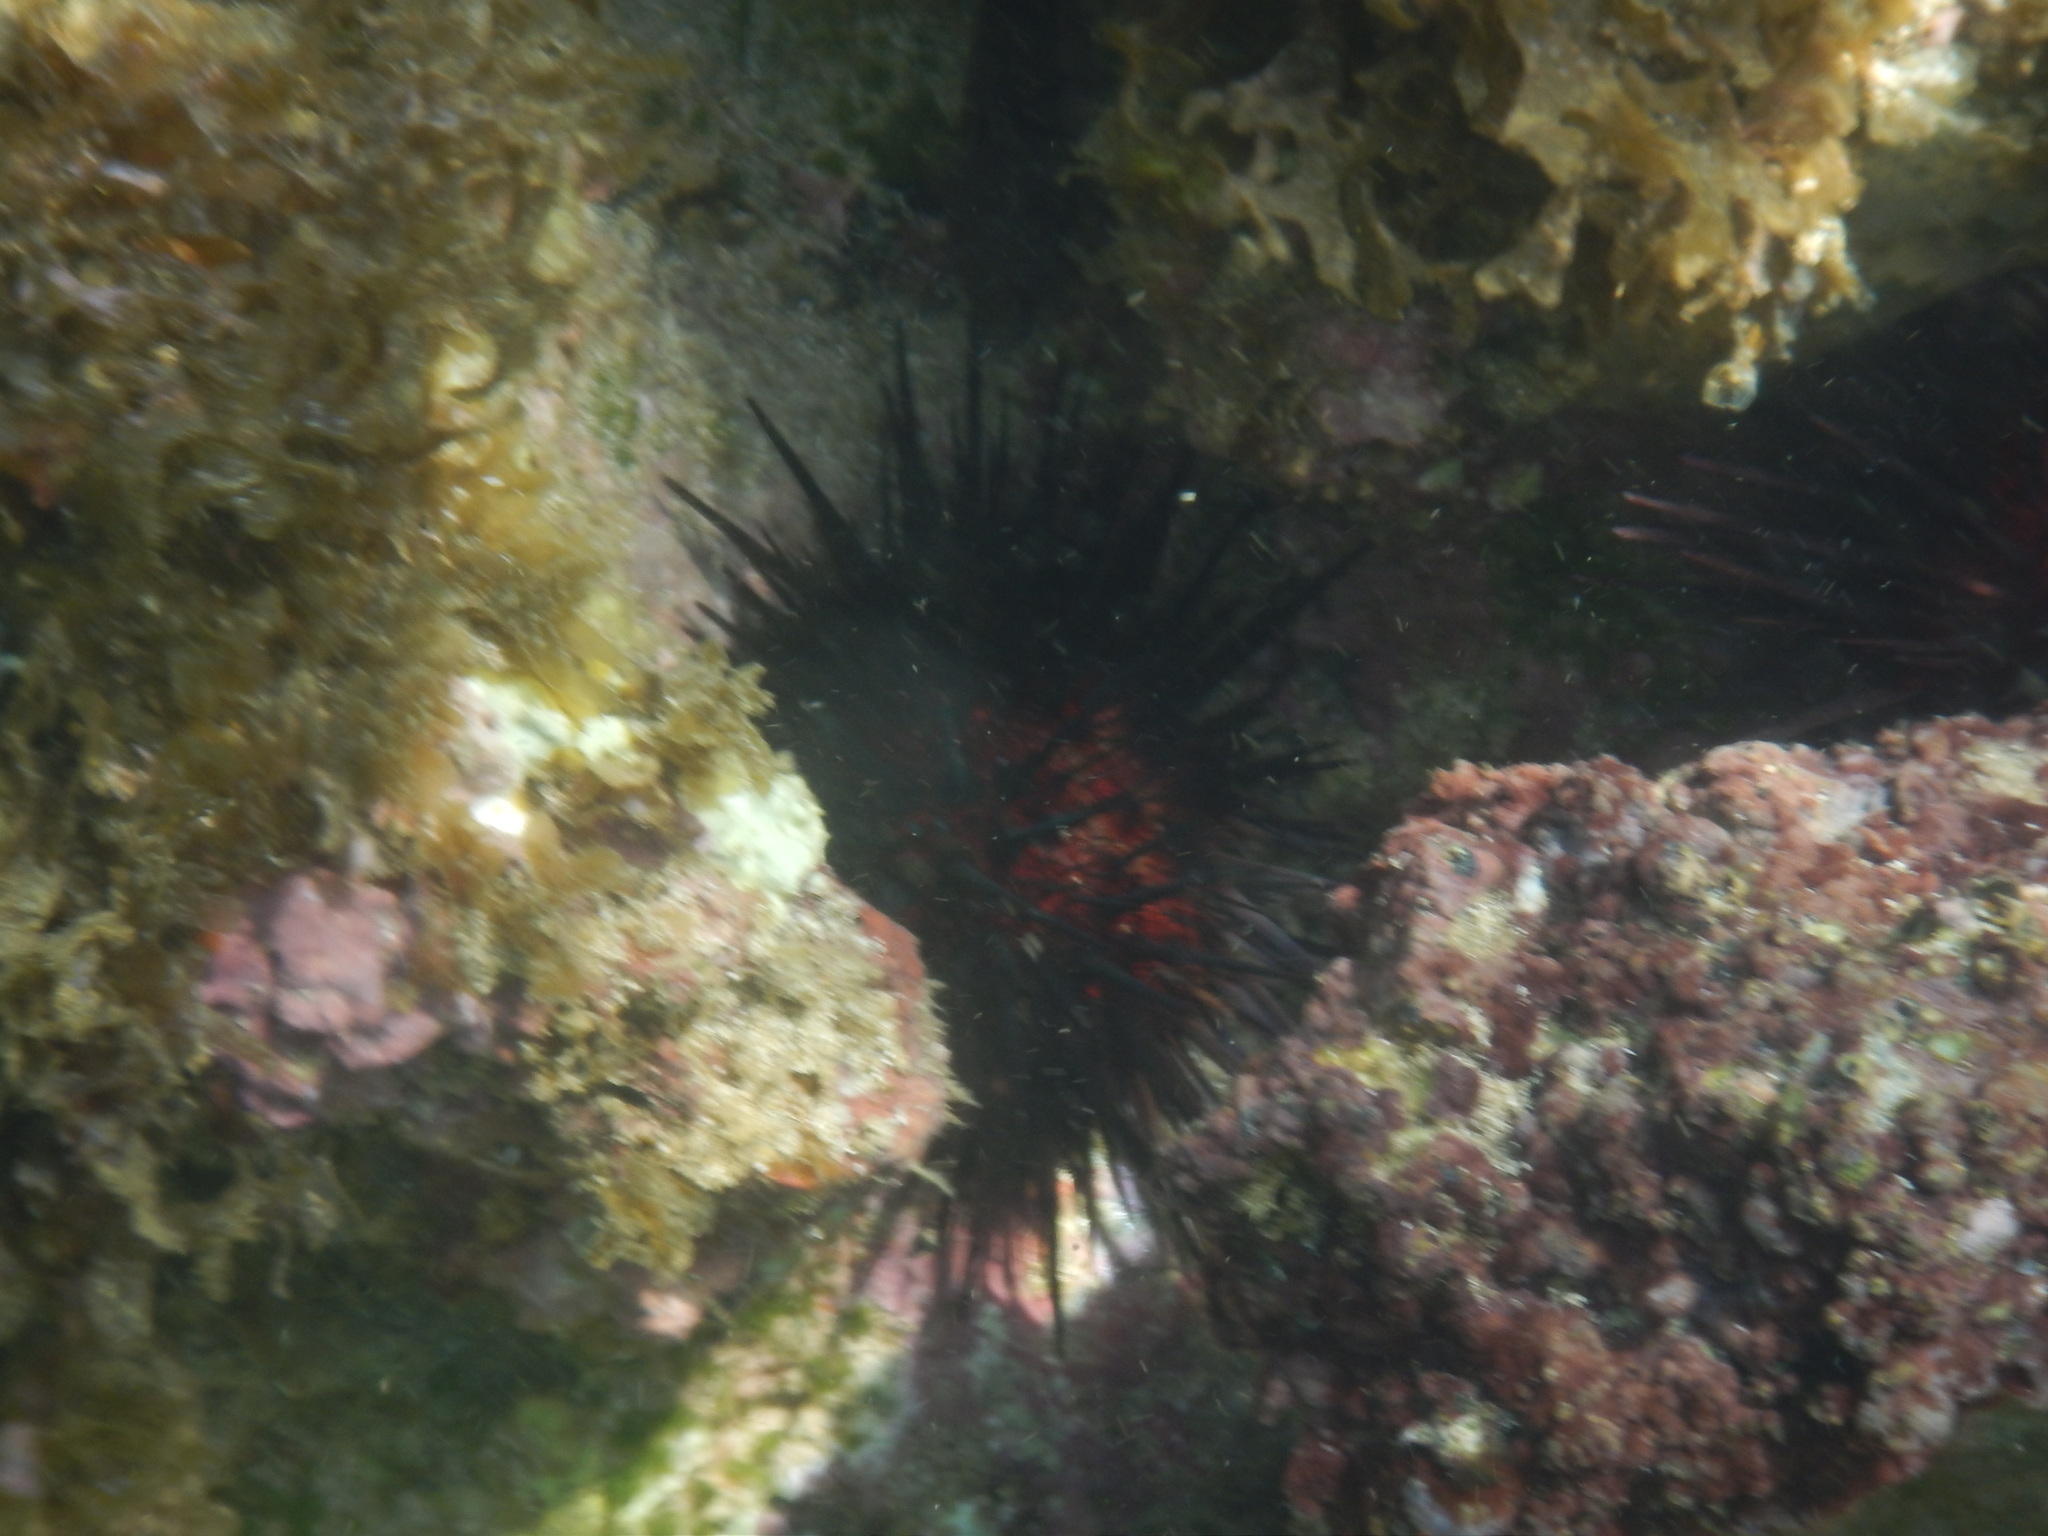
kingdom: Animalia
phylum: Echinodermata
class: Echinoidea
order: Camarodonta
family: Echinometridae
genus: Echinometra
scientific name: Echinometra lucunter
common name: Rock urchin
